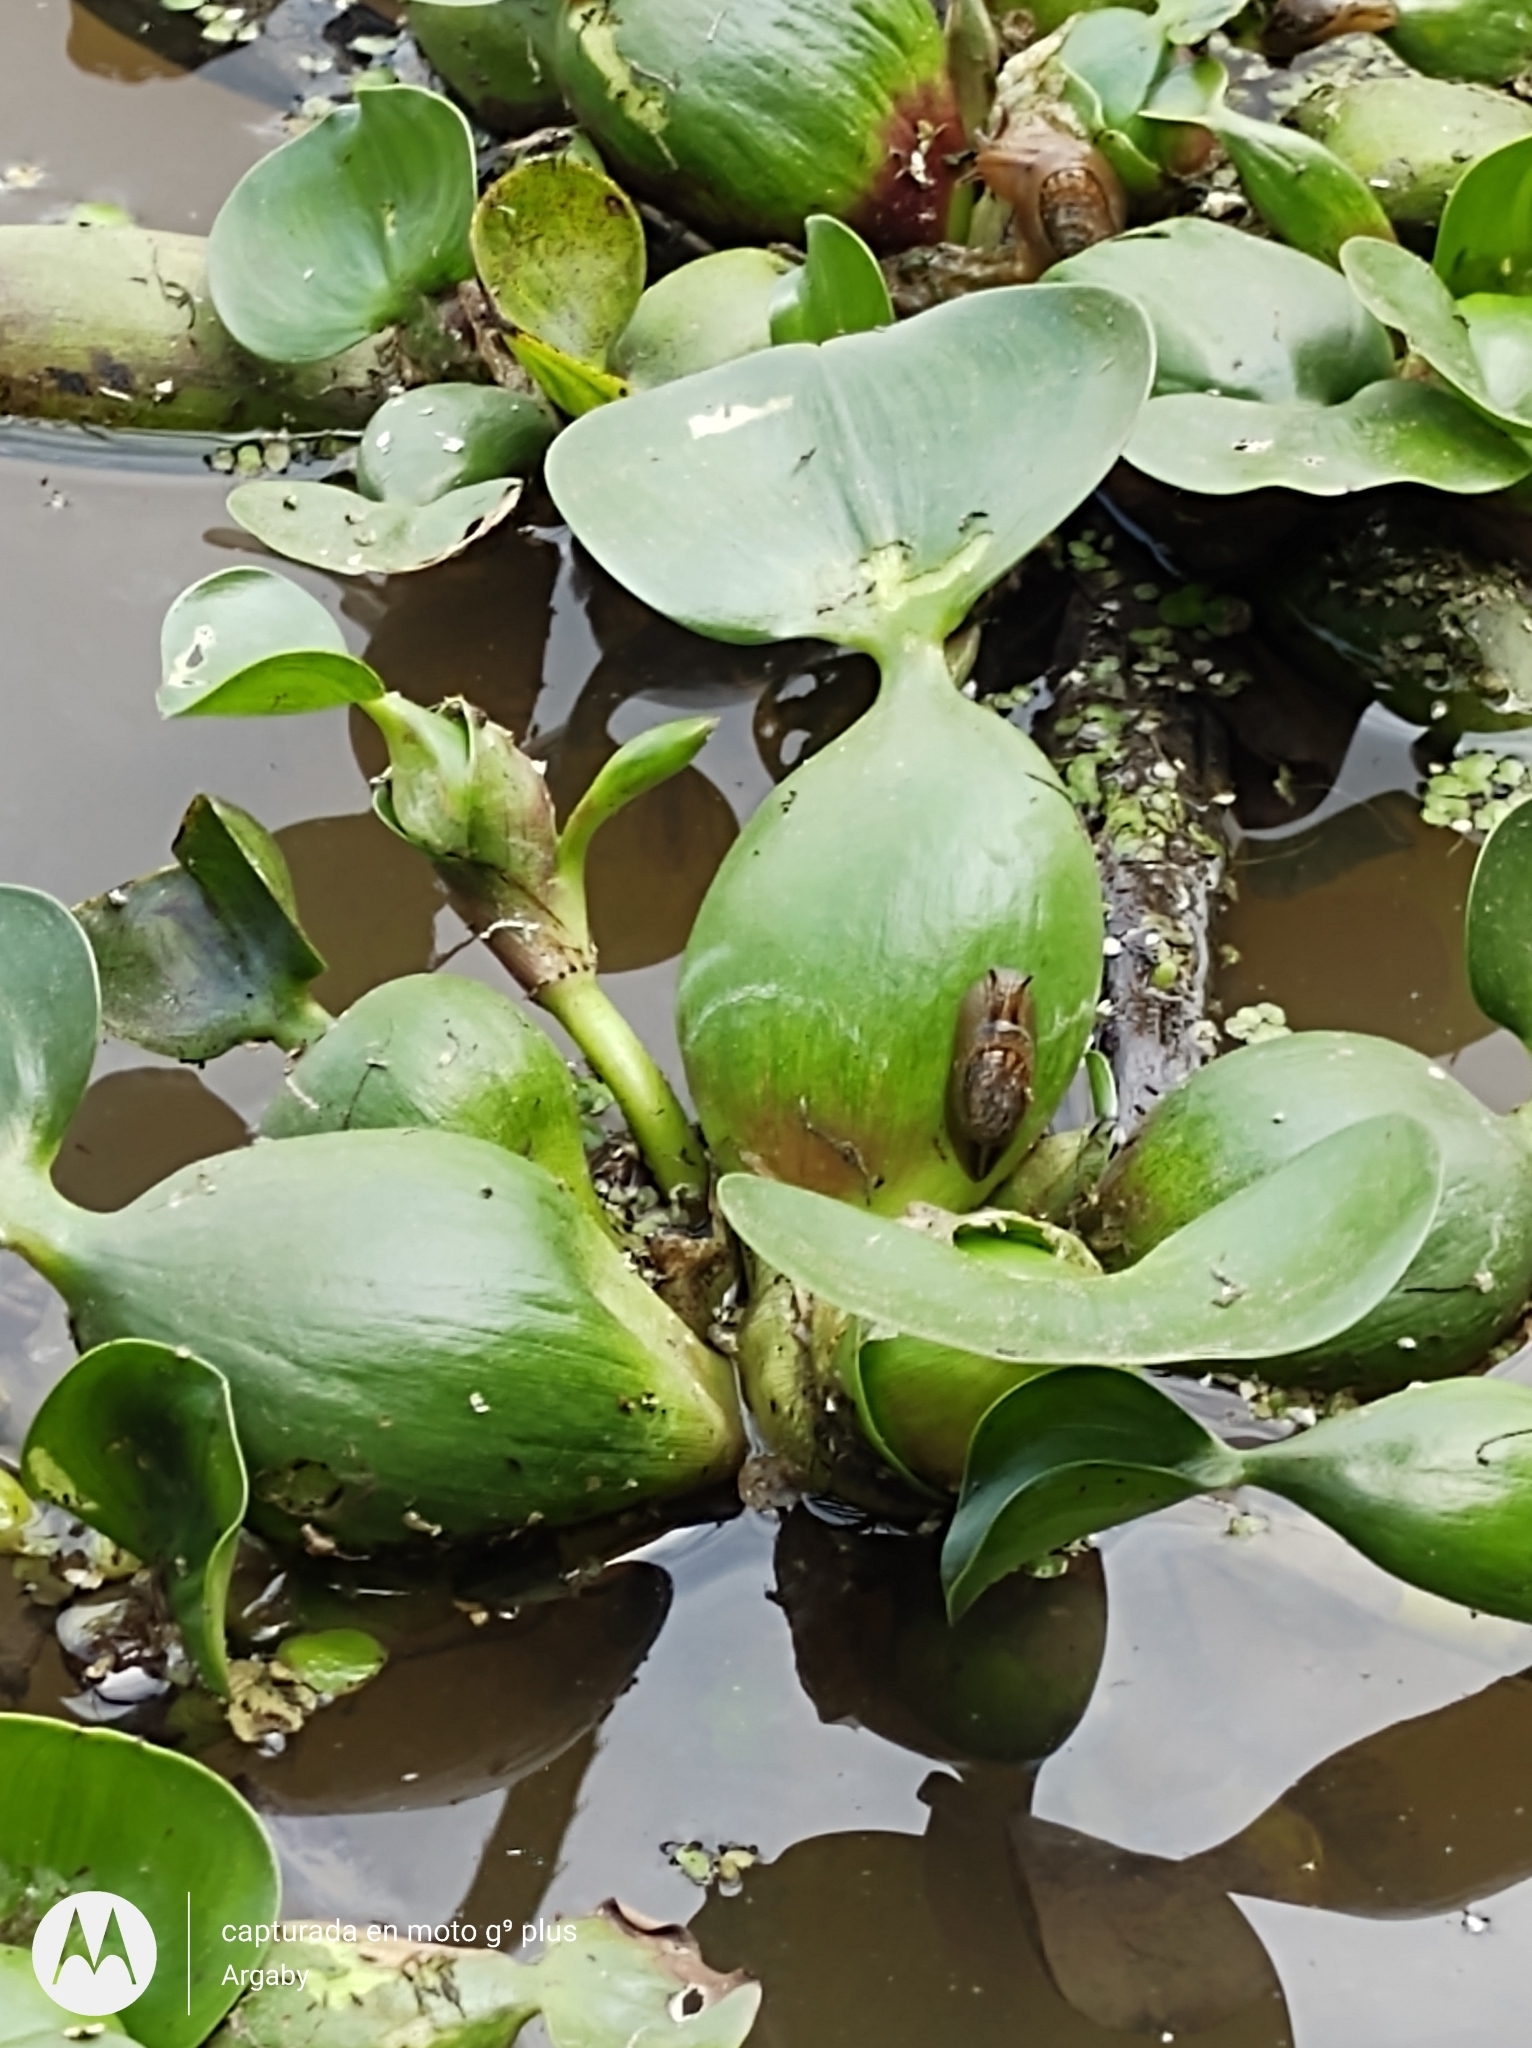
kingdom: Plantae
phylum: Tracheophyta
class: Liliopsida
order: Commelinales
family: Pontederiaceae
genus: Pontederia
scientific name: Pontederia crassipes
